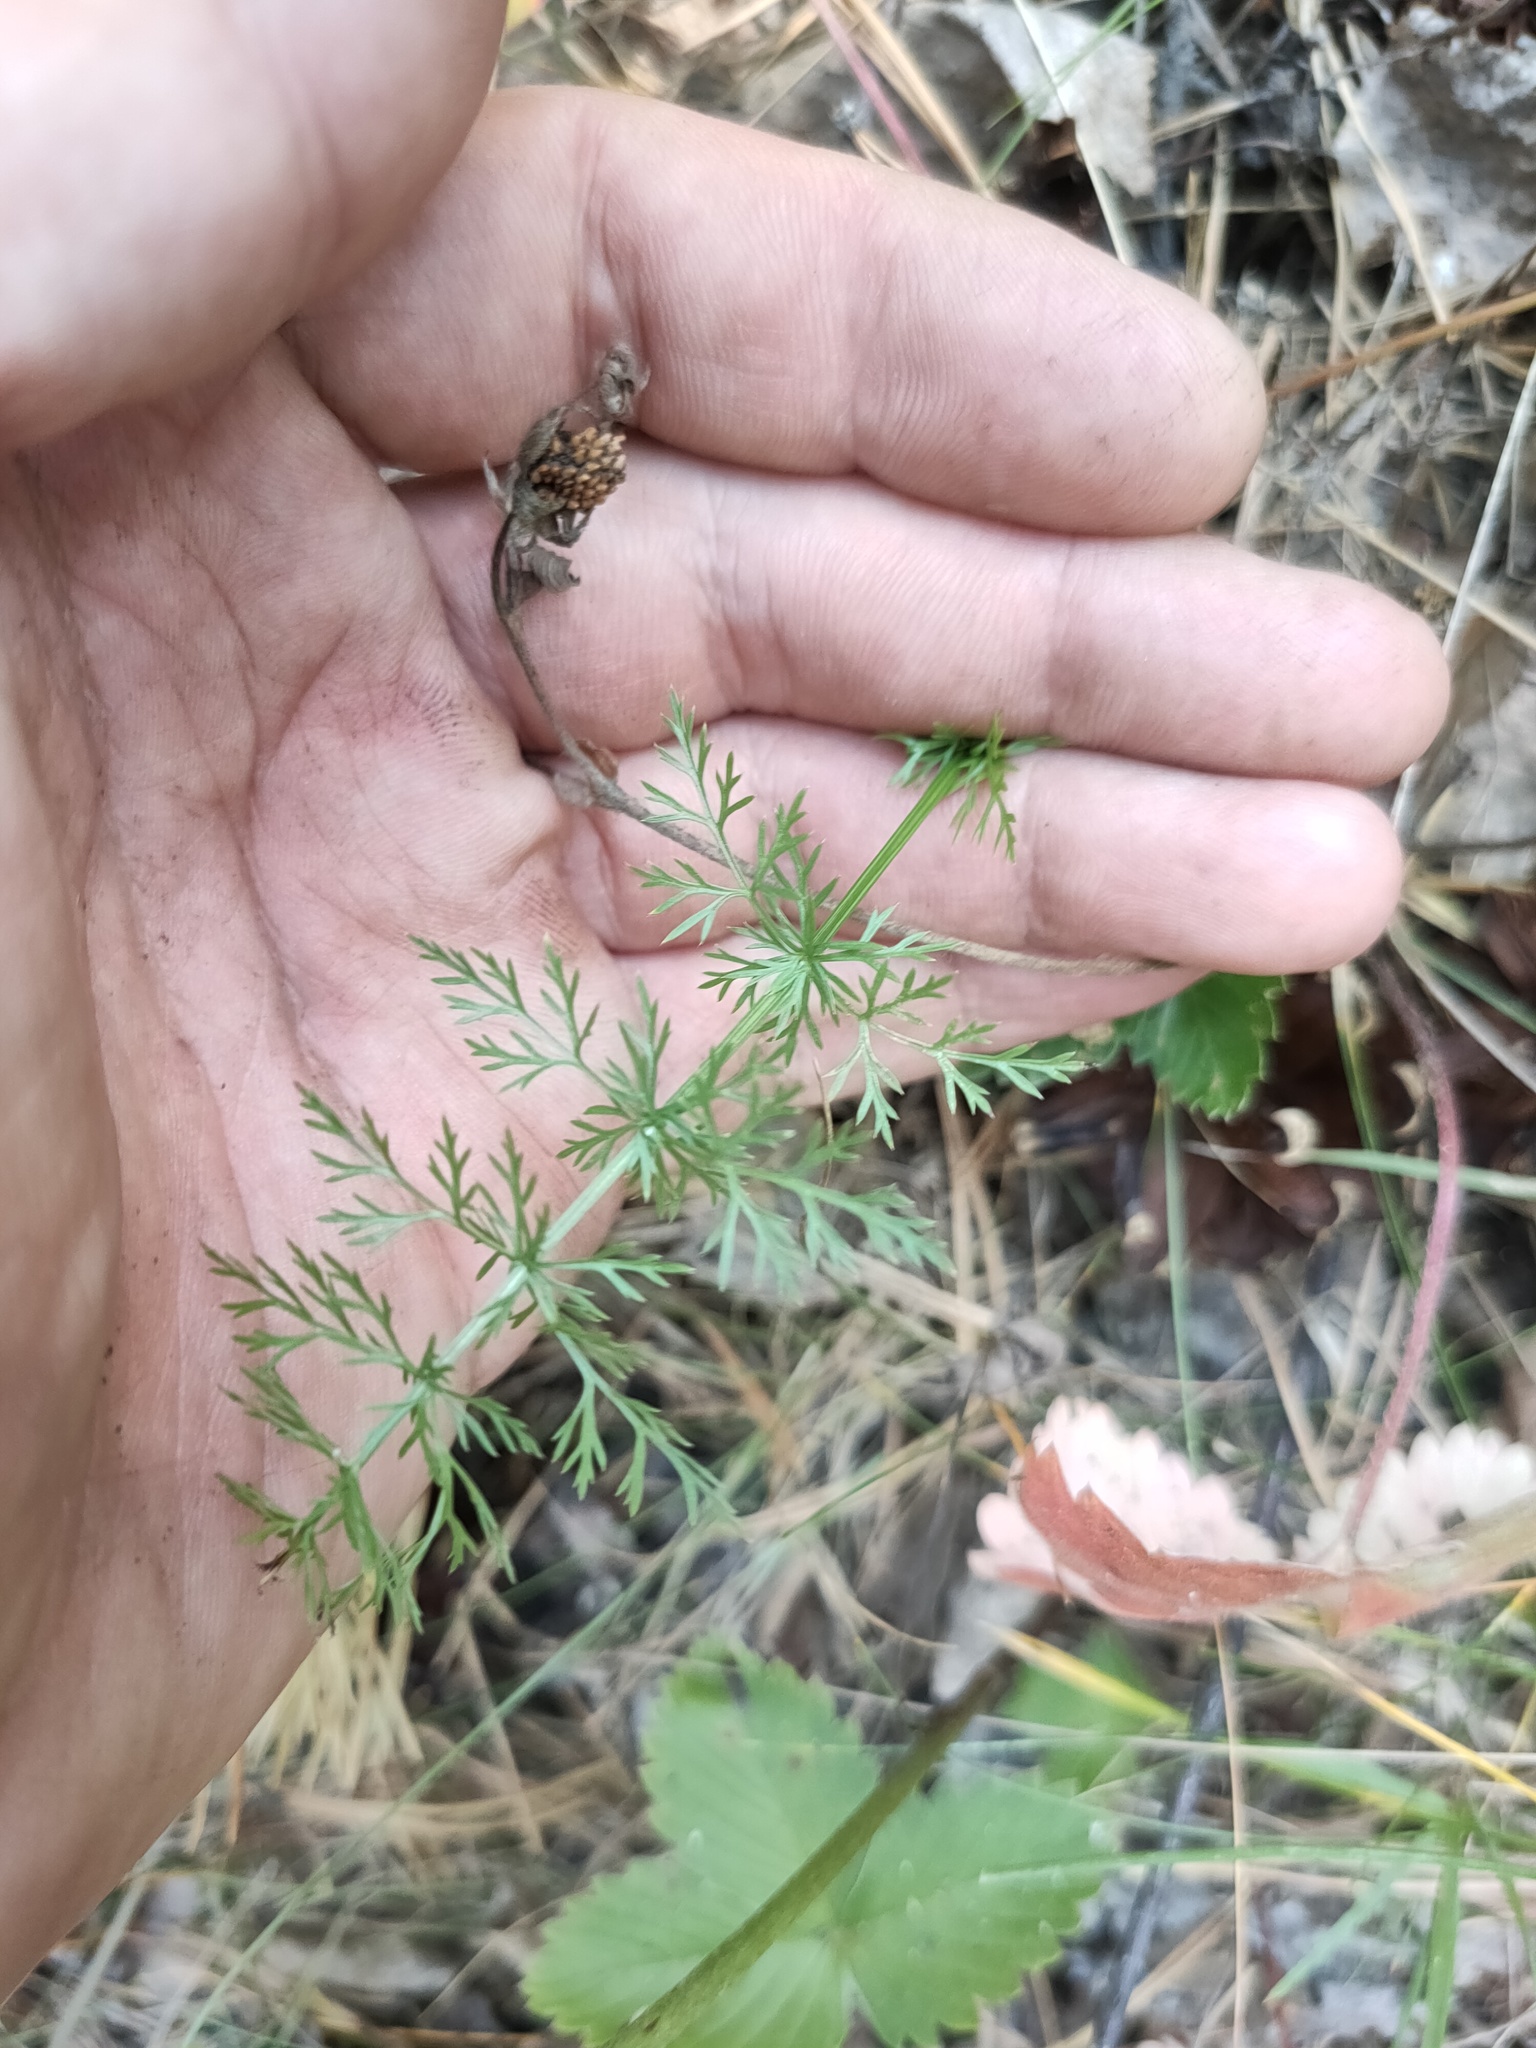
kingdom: Plantae
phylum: Tracheophyta
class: Magnoliopsida
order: Apiales
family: Apiaceae
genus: Carum
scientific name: Carum carvi
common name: Caraway
